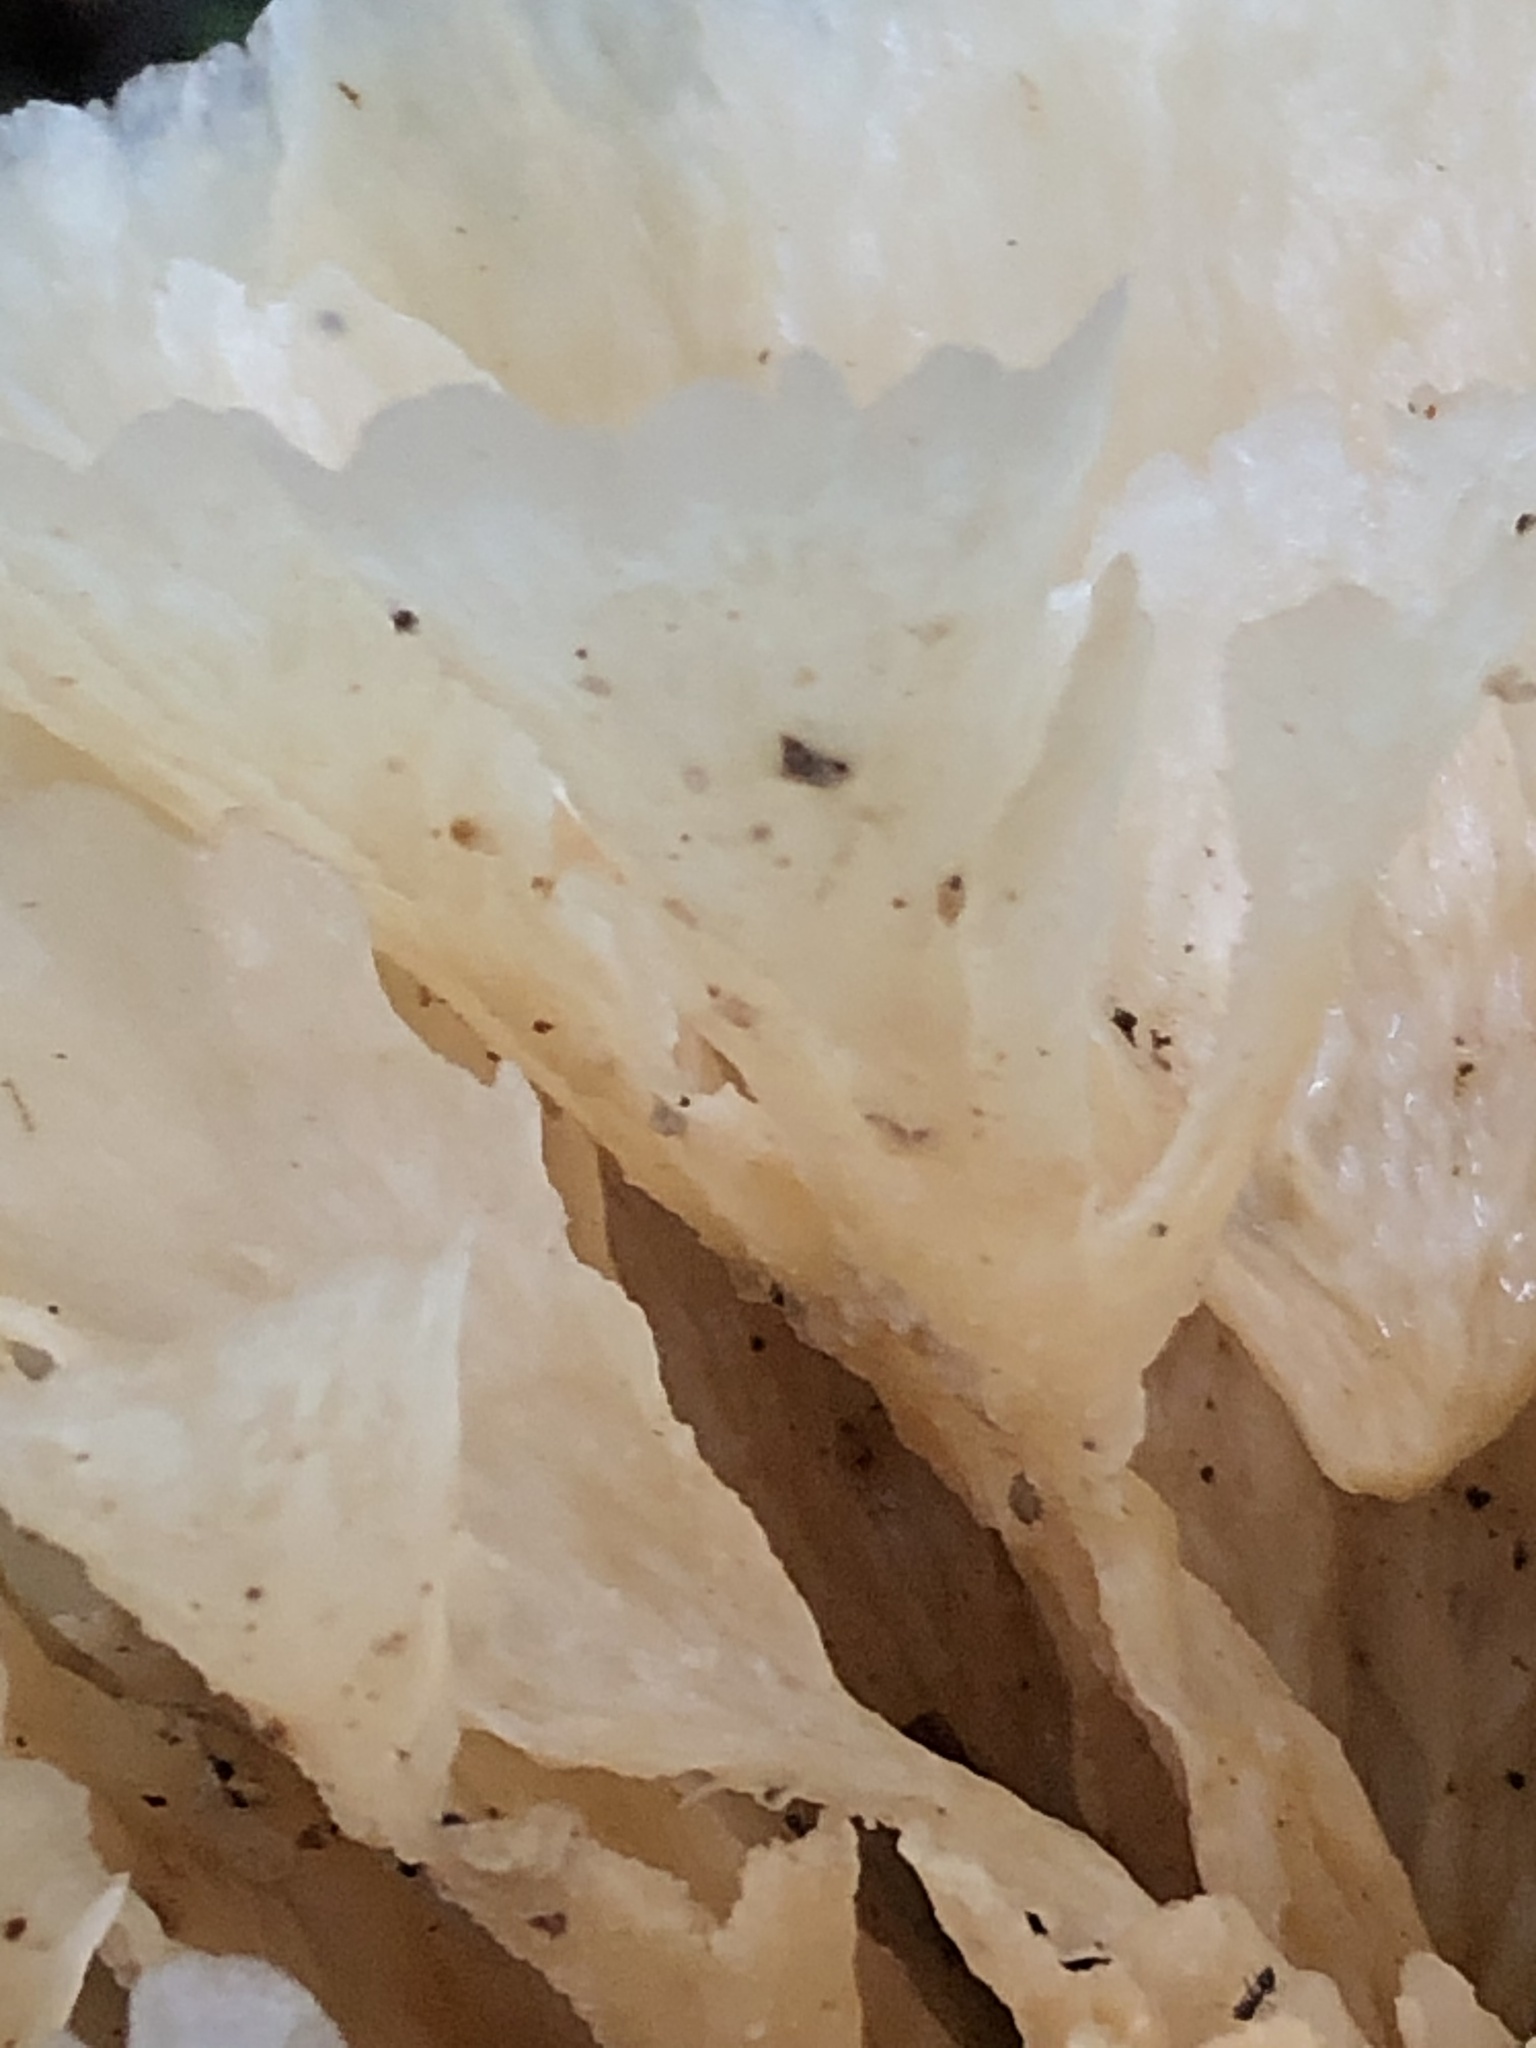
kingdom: Fungi
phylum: Basidiomycota
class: Agaricomycetes
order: Polyporales
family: Irpicaceae
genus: Irpex
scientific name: Irpex rosettiformis
